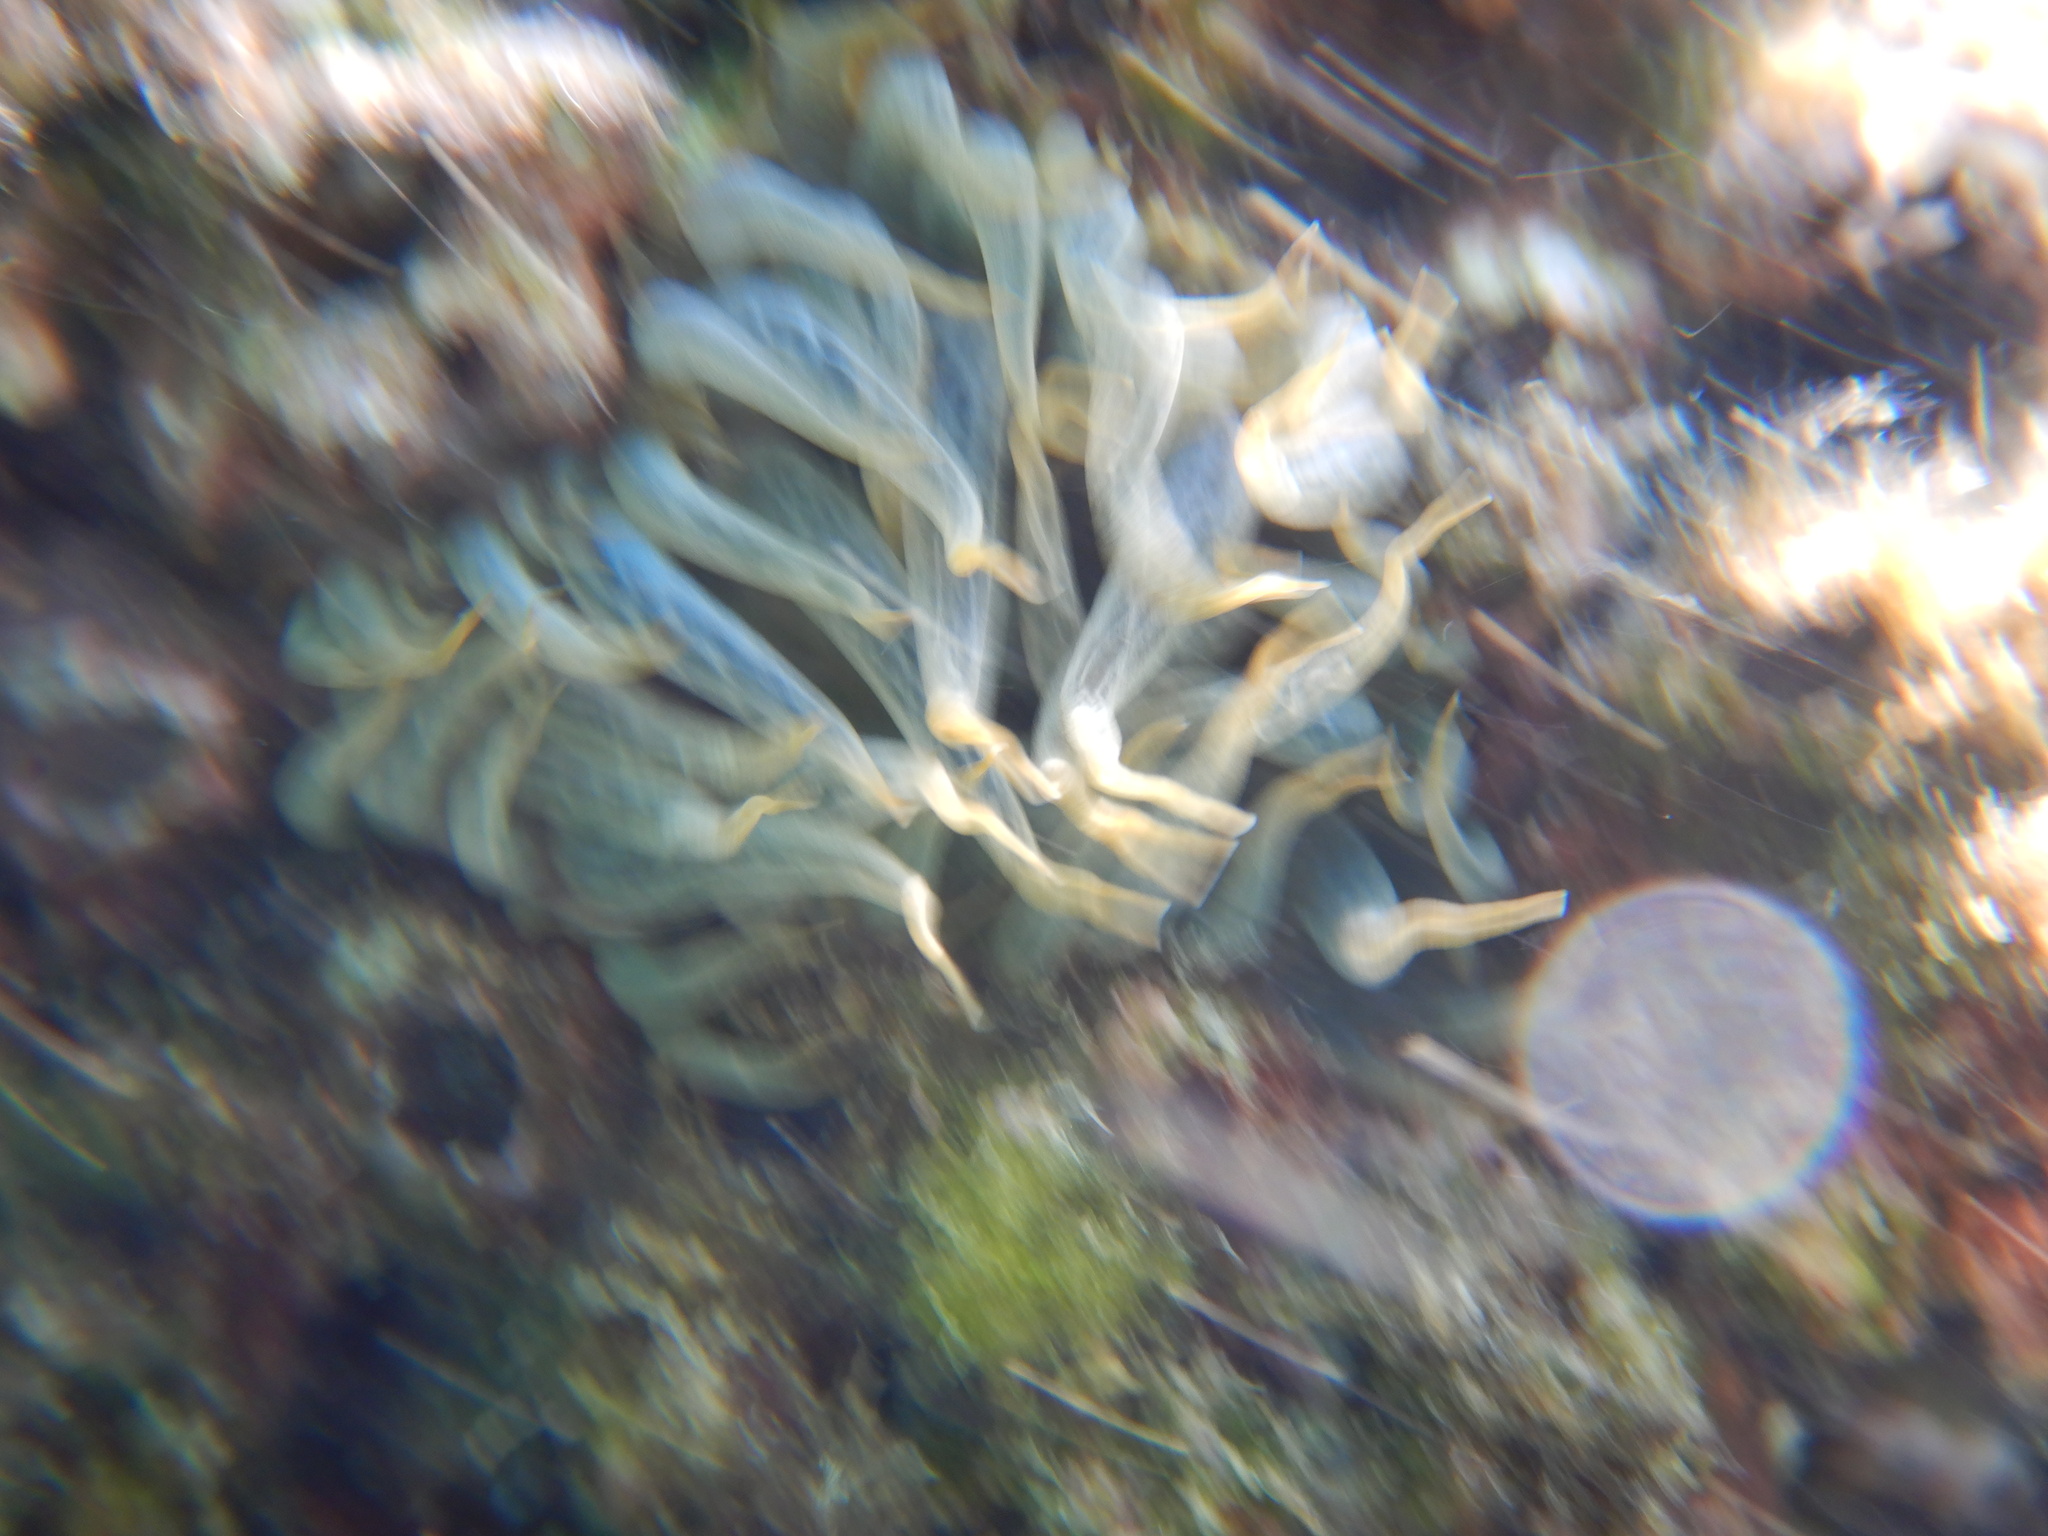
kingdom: Animalia
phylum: Cnidaria
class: Anthozoa
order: Actiniaria
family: Aiptasiidae
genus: Aiptasia
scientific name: Aiptasia mutabilis
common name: Trumpet anemone
